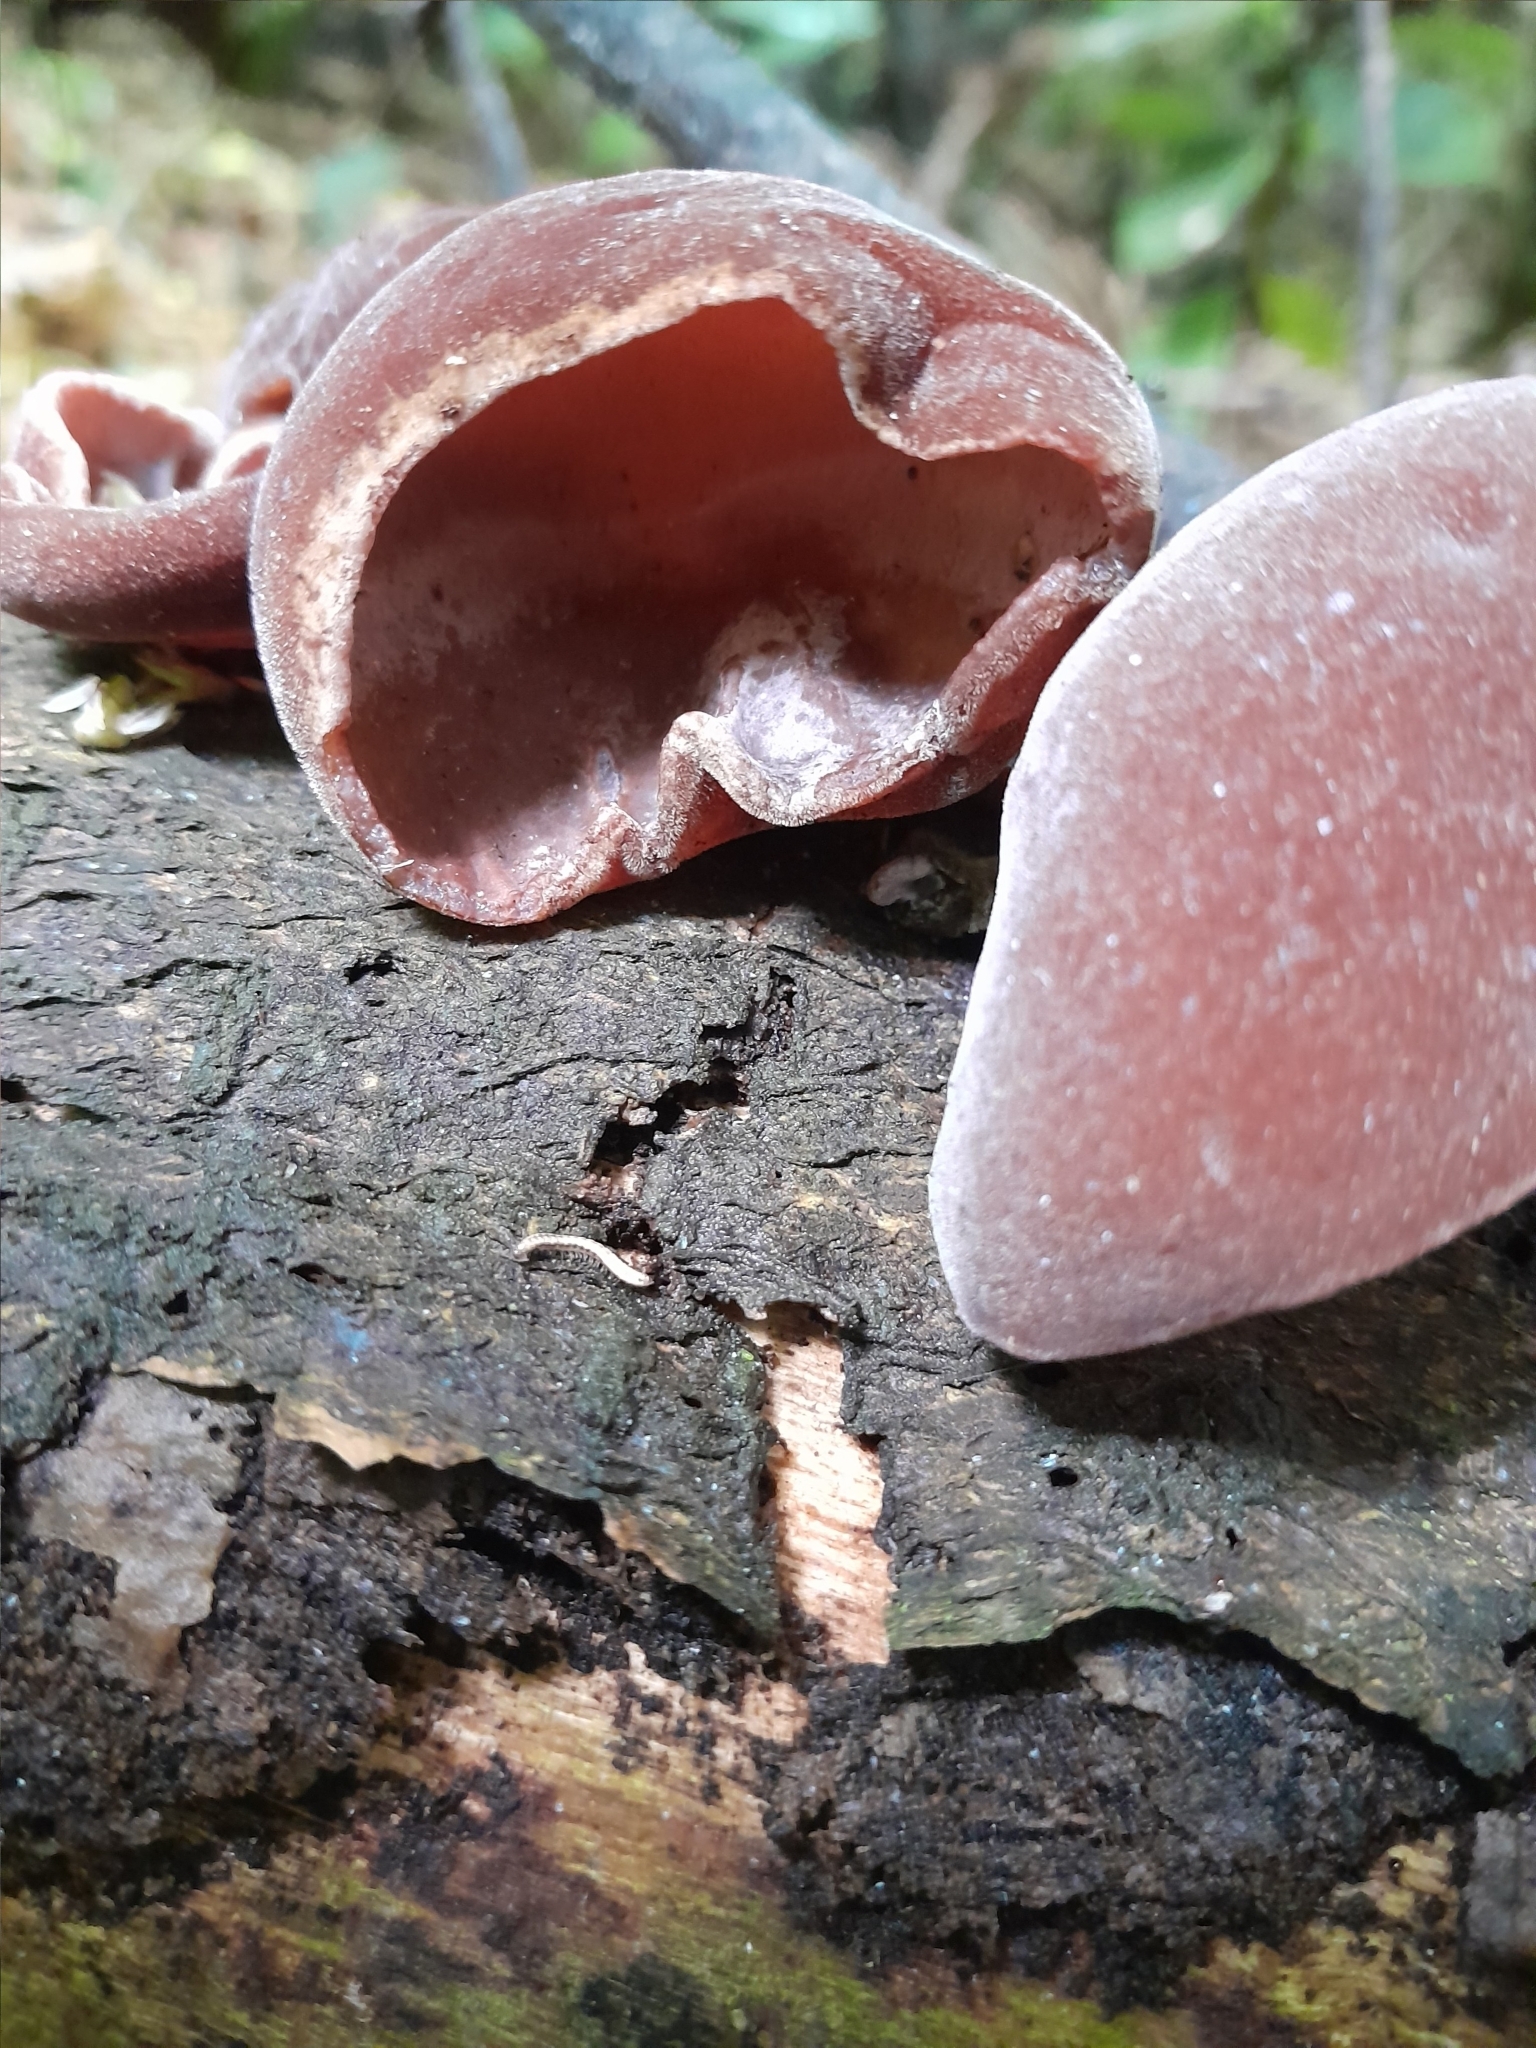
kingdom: Fungi
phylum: Basidiomycota
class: Agaricomycetes
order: Auriculariales
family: Auriculariaceae
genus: Auricularia
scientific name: Auricularia cornea
